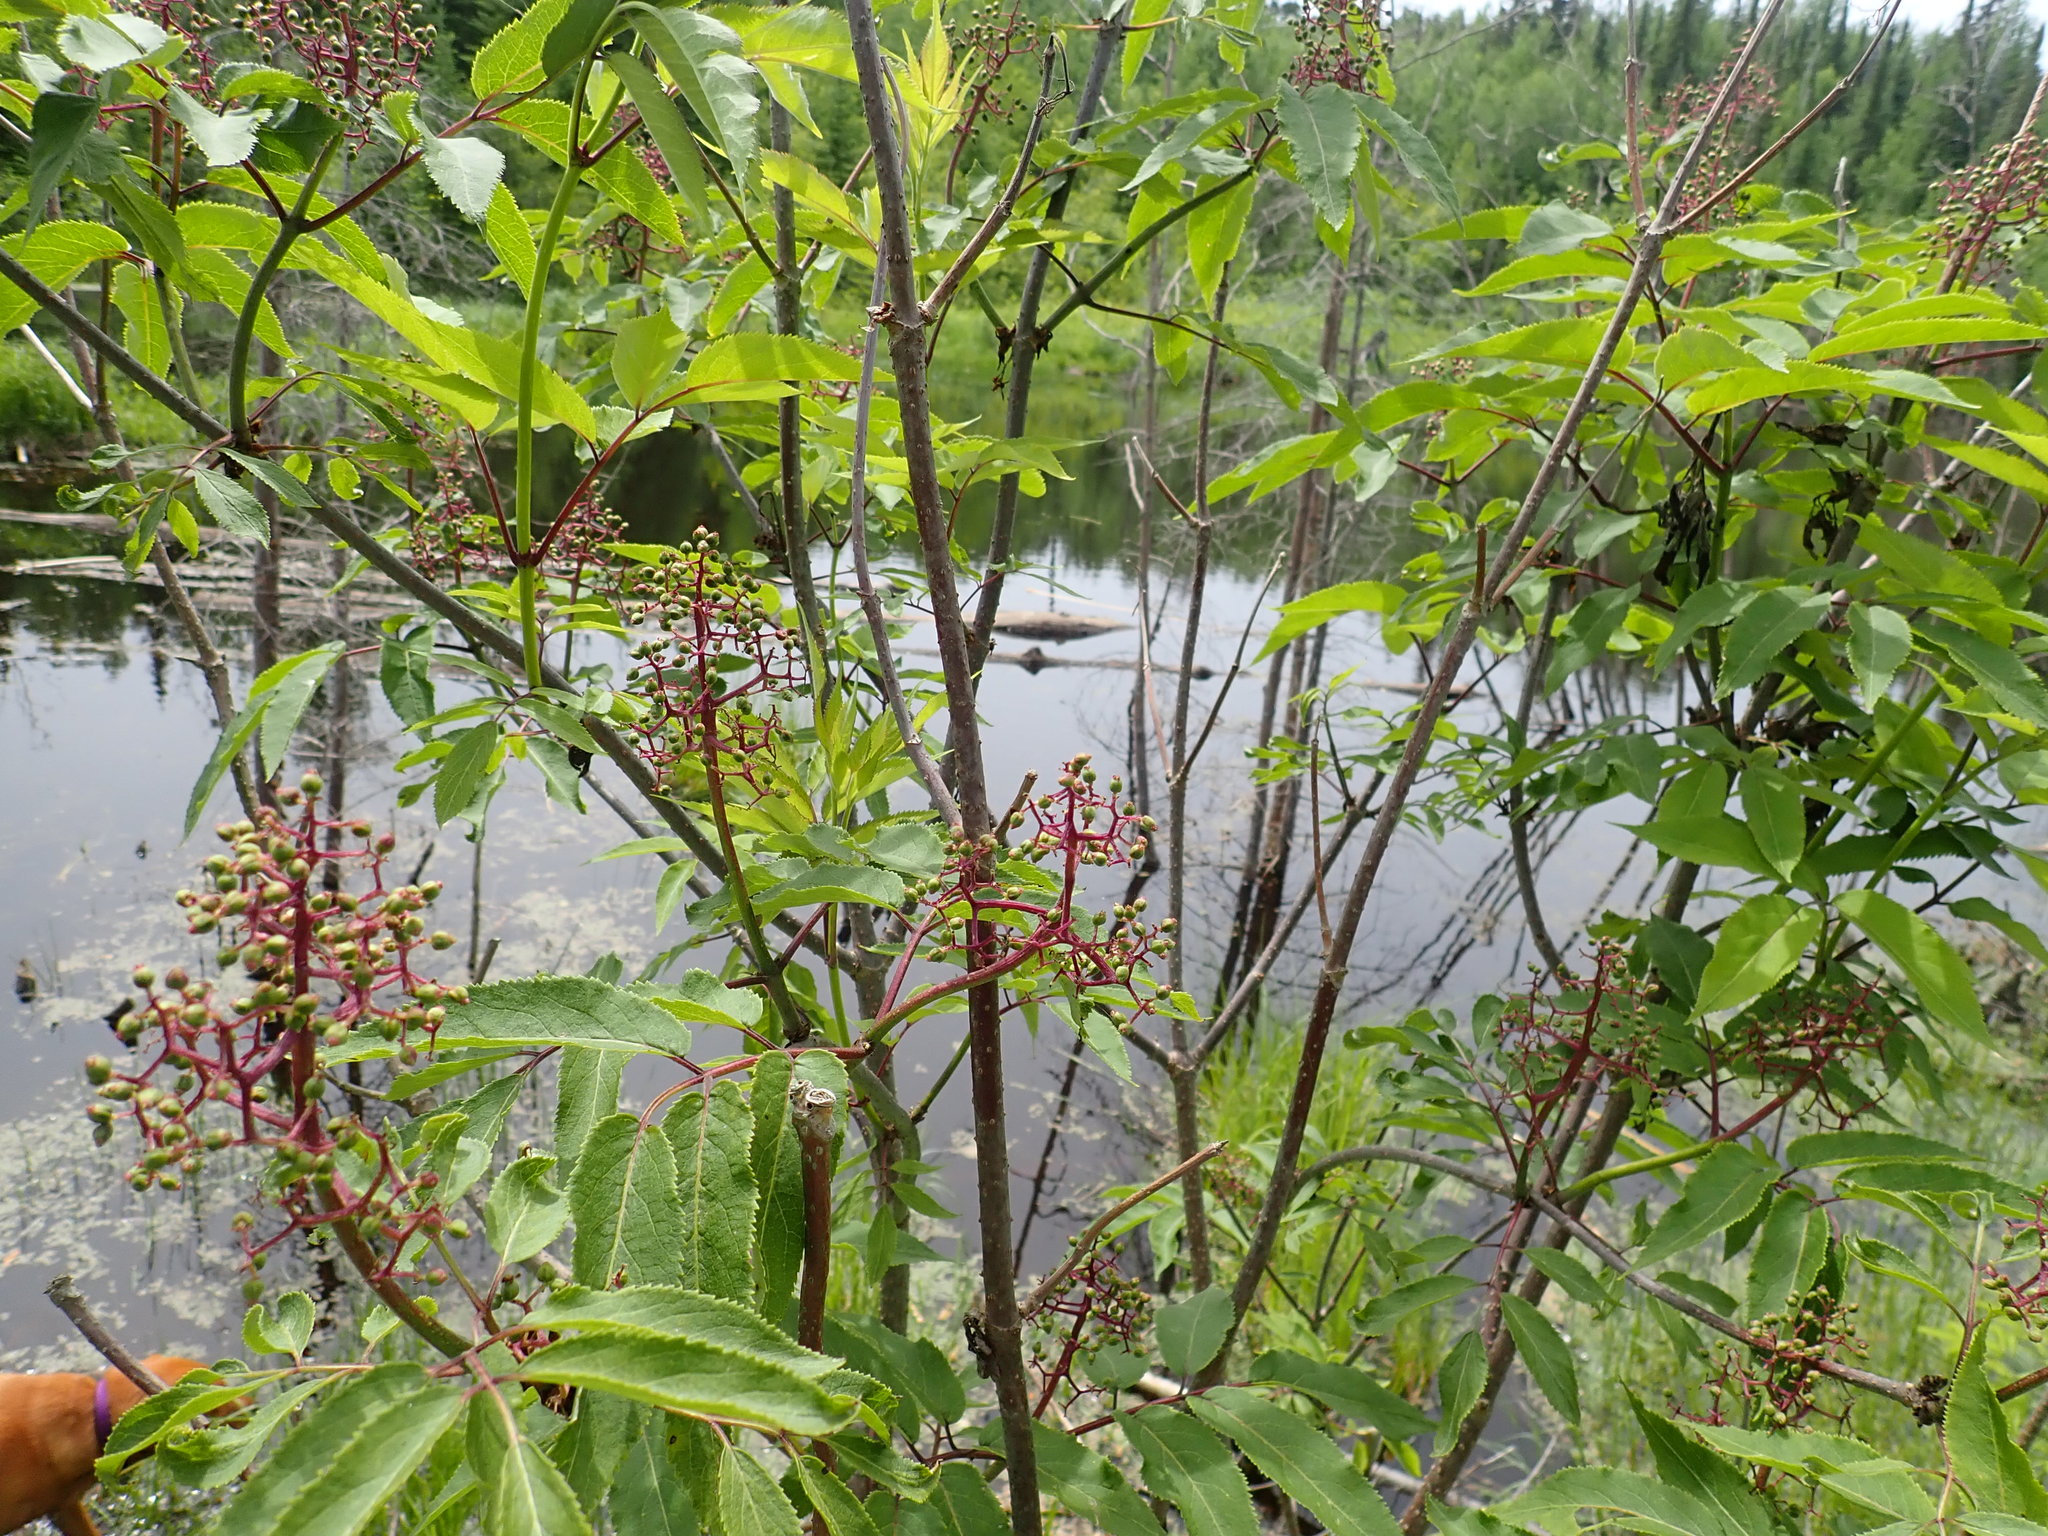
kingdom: Plantae
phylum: Tracheophyta
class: Magnoliopsida
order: Dipsacales
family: Viburnaceae
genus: Sambucus
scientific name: Sambucus racemosa
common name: Red-berried elder
